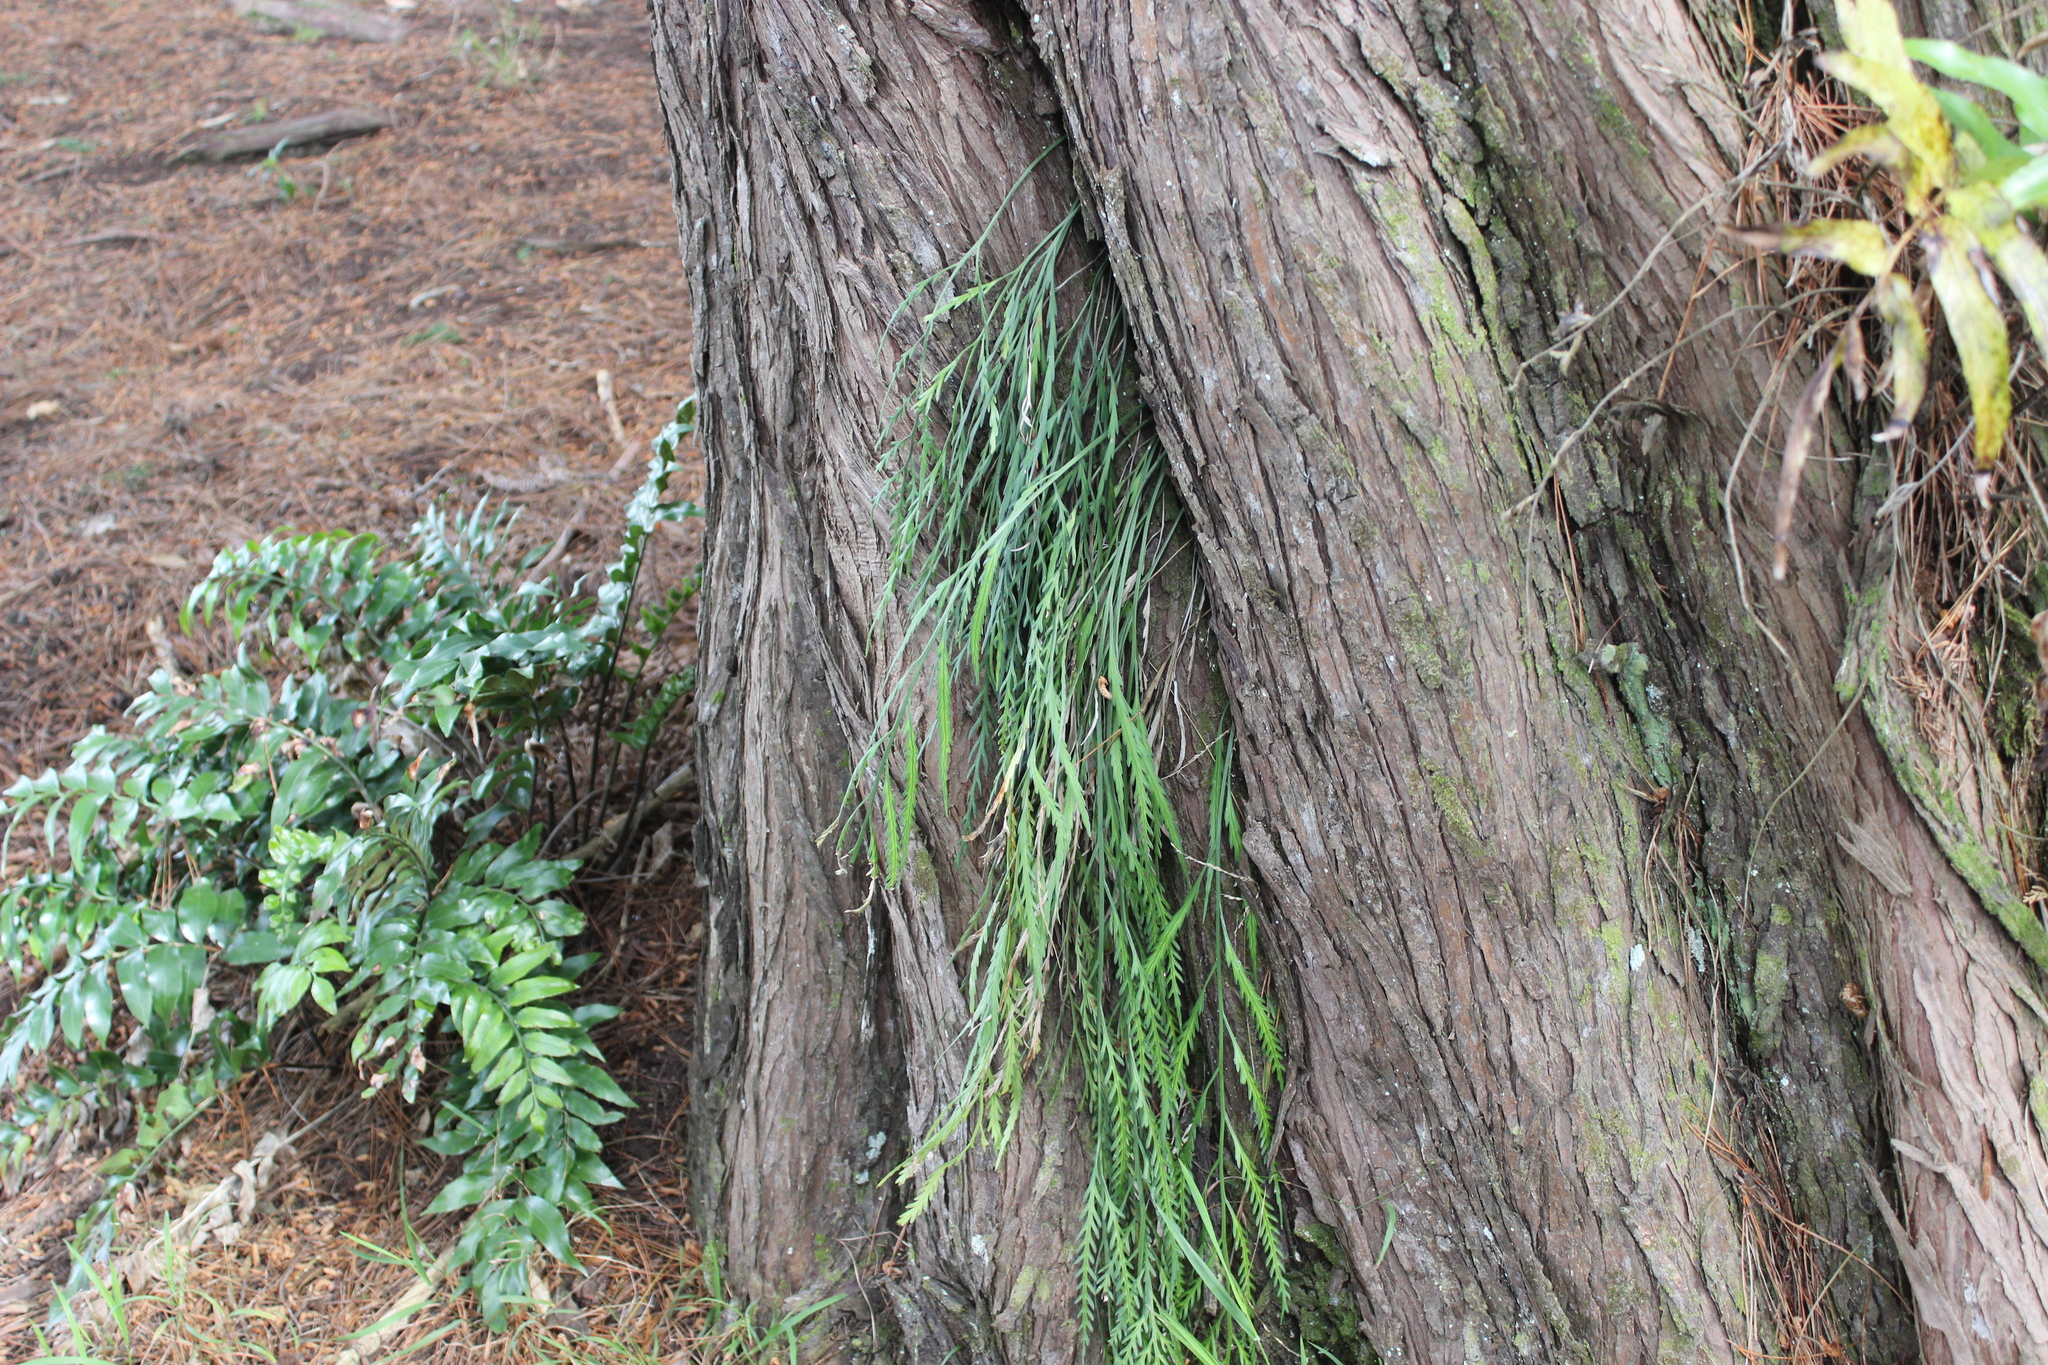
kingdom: Plantae
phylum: Tracheophyta
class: Polypodiopsida
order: Polypodiales
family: Aspleniaceae
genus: Asplenium
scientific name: Asplenium flaccidum
